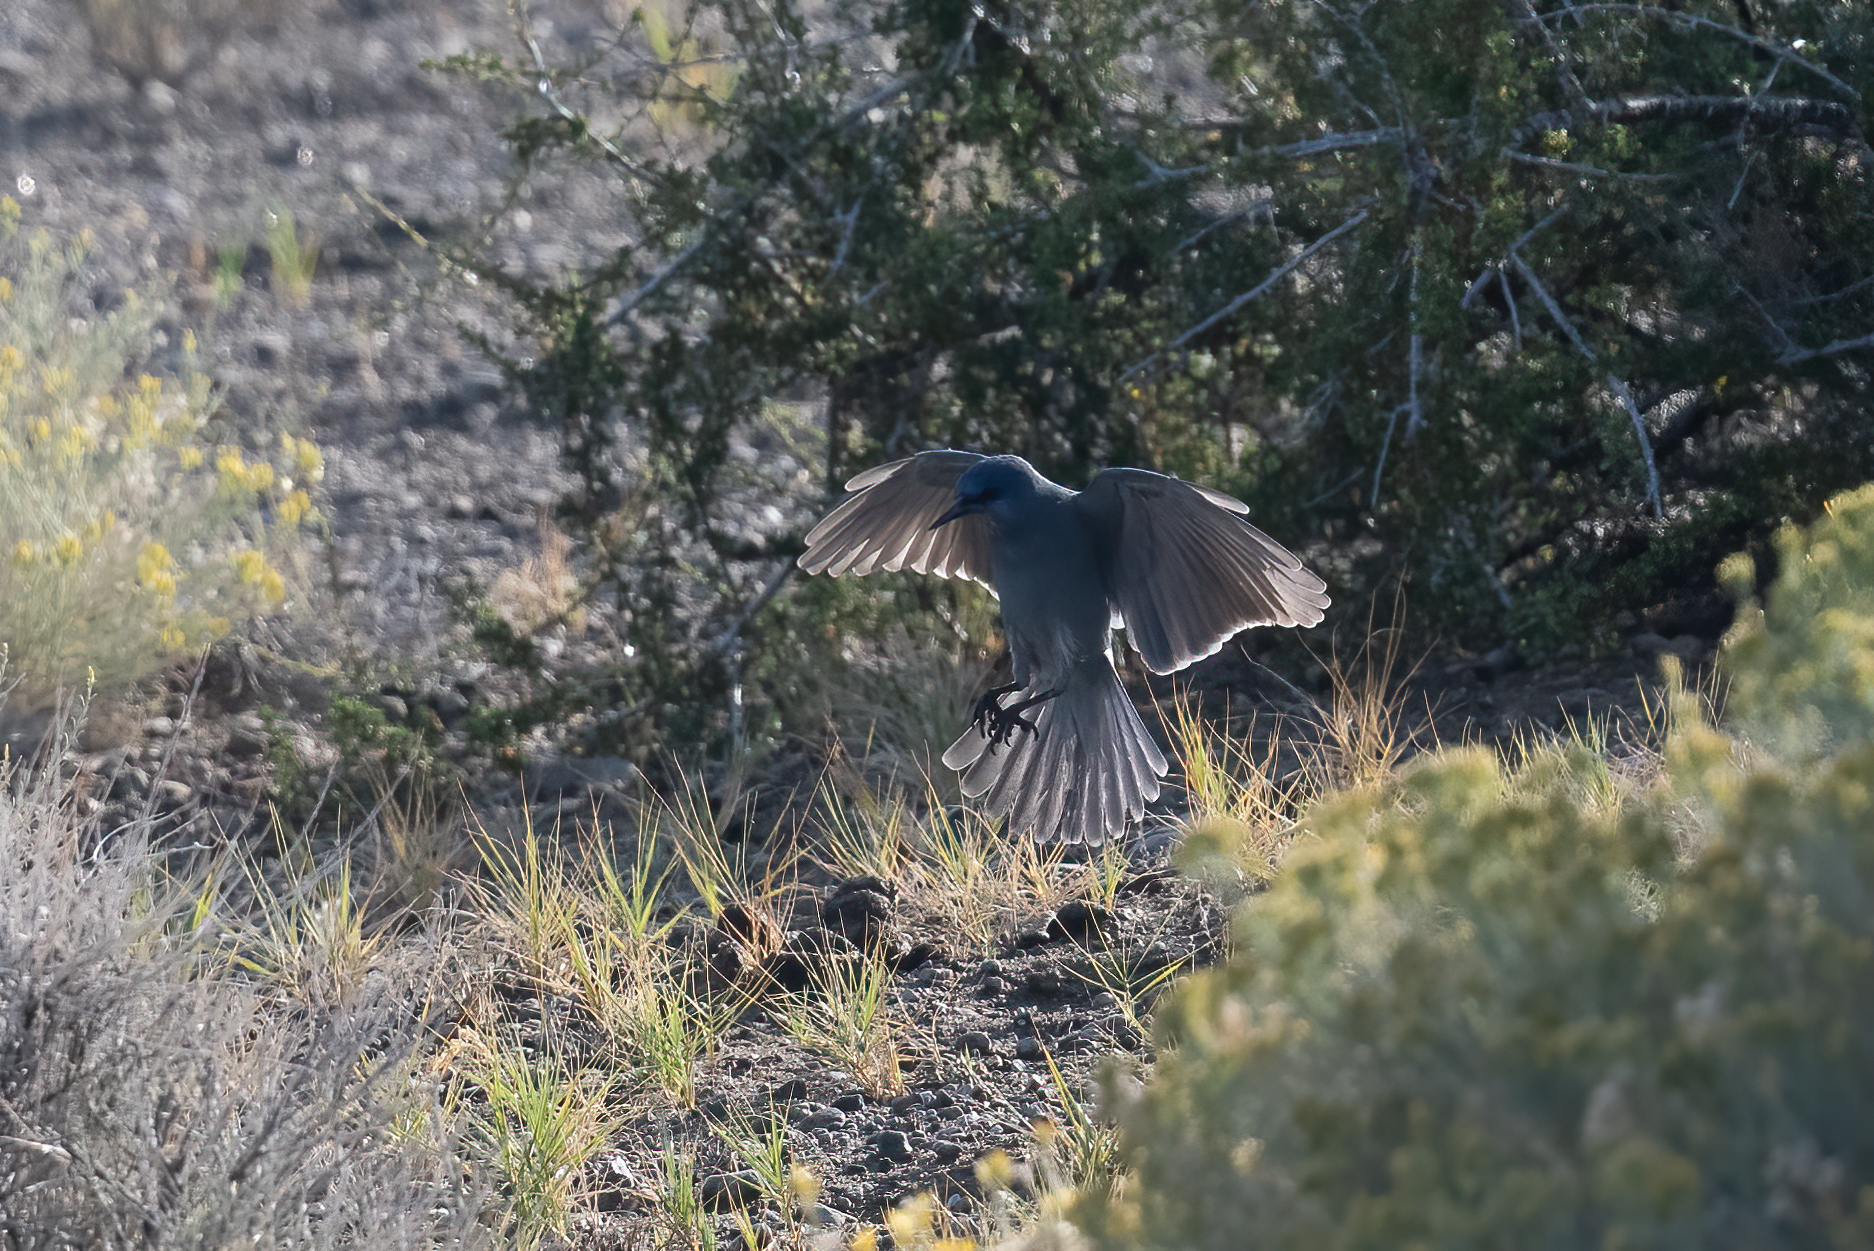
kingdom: Animalia
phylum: Chordata
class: Aves
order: Passeriformes
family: Corvidae
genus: Gymnorhinus
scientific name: Gymnorhinus cyanocephalus
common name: Pinyon jay
